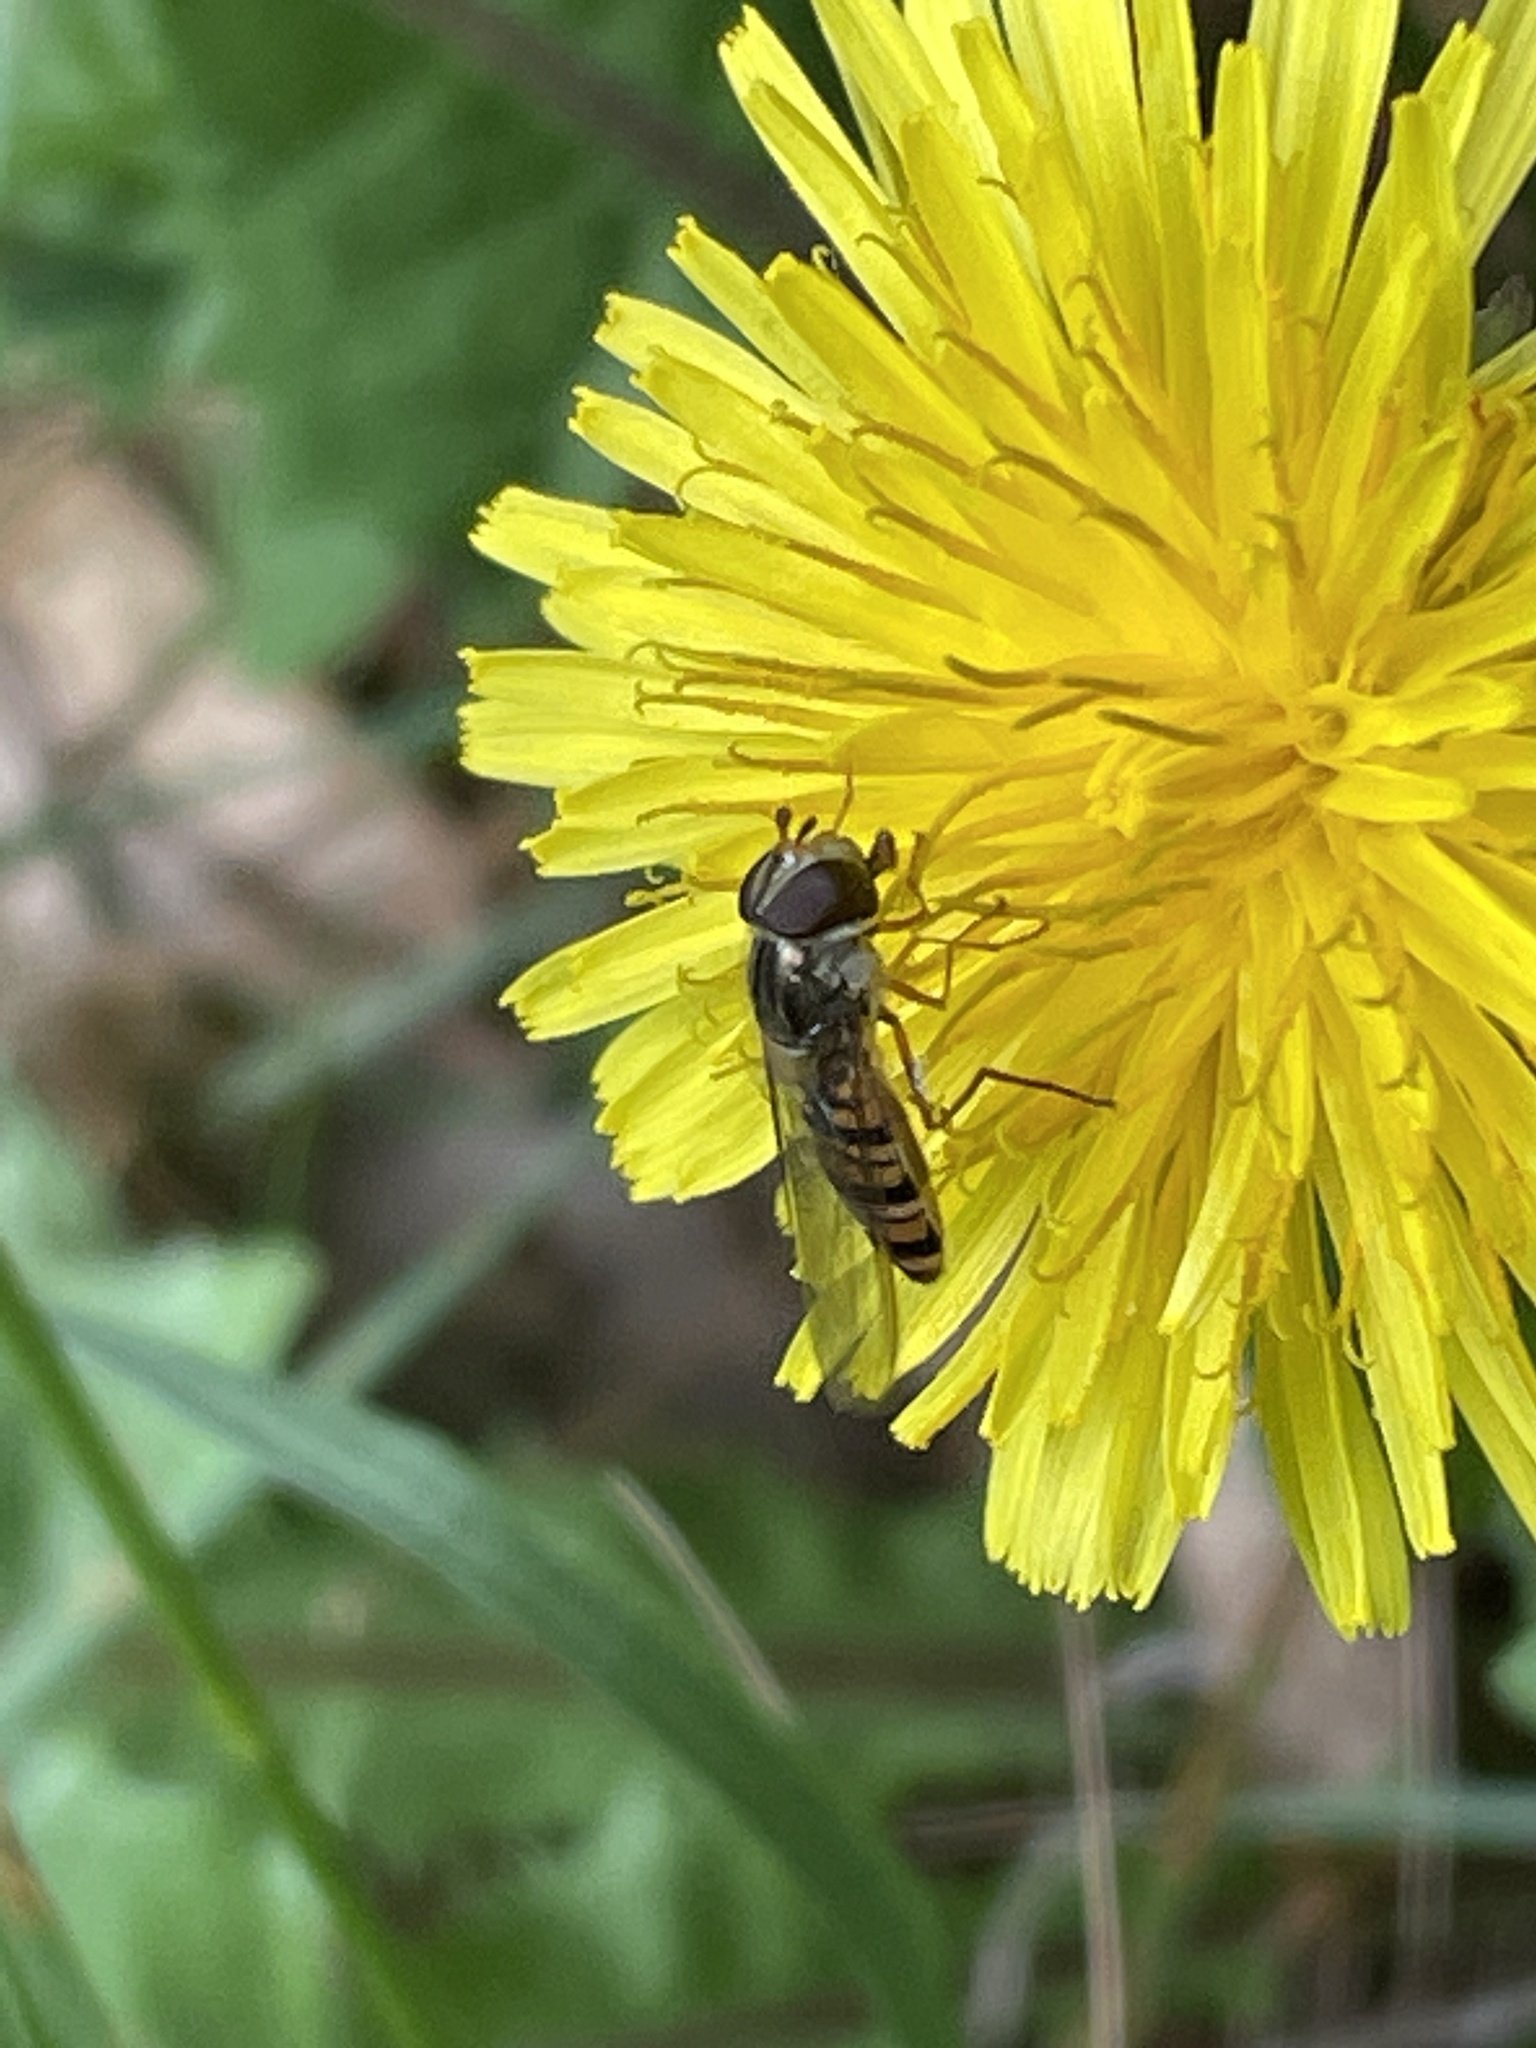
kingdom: Animalia
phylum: Arthropoda
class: Insecta
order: Diptera
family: Syrphidae
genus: Episyrphus
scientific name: Episyrphus balteatus
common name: Marmalade hoverfly
